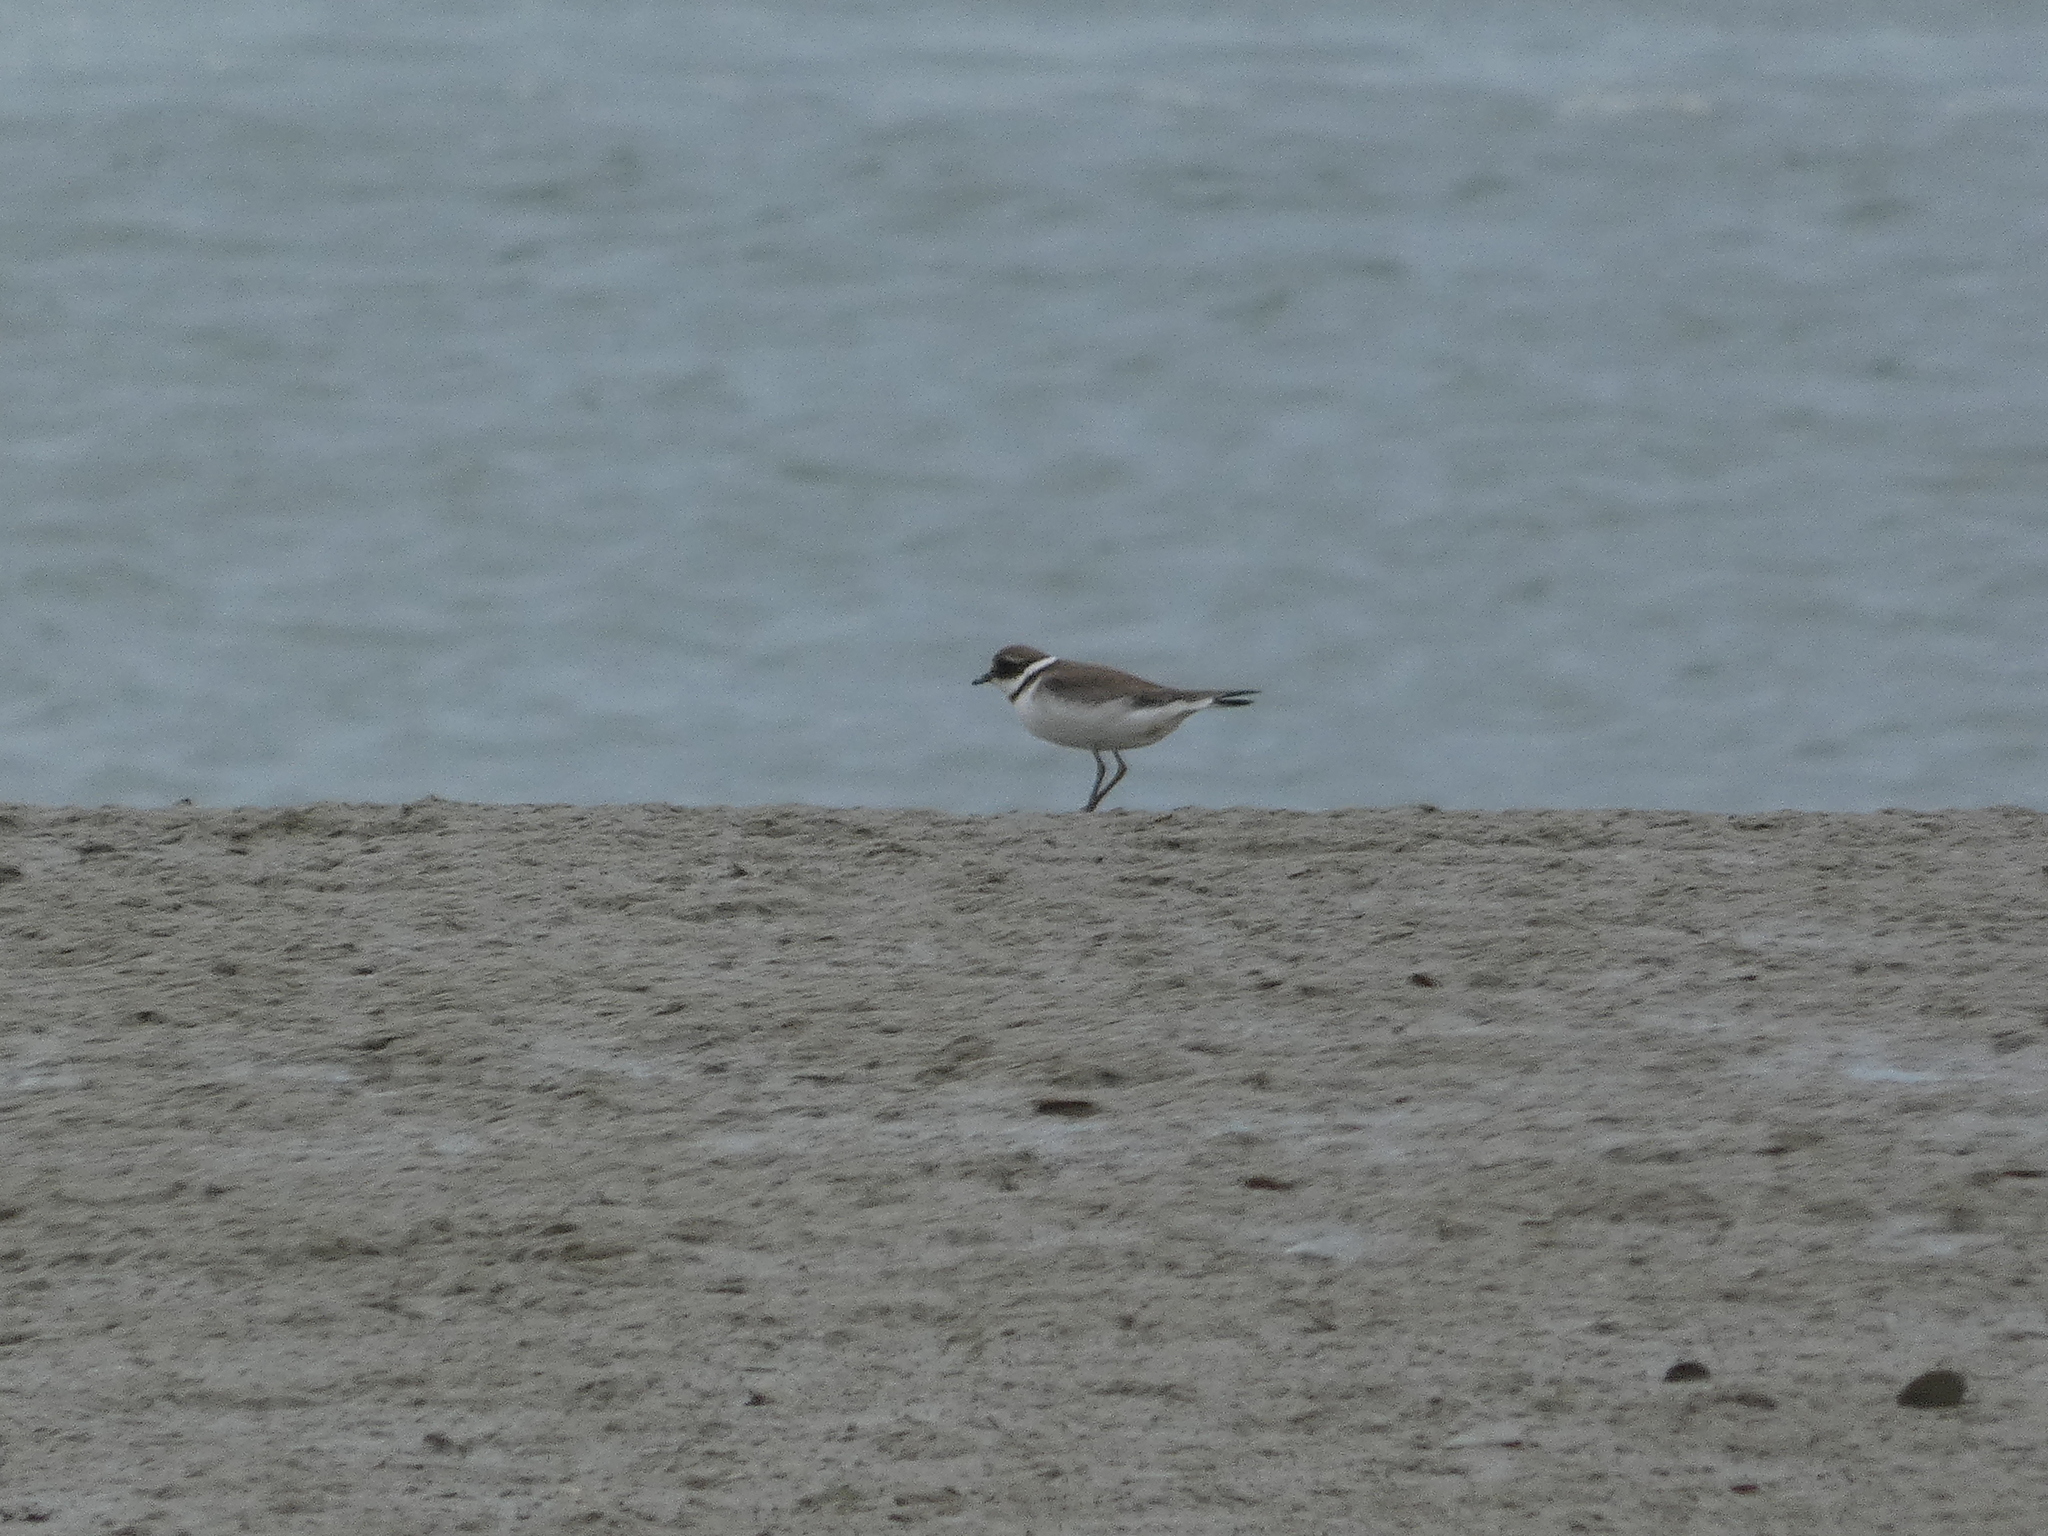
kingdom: Animalia
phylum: Chordata
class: Aves
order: Charadriiformes
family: Charadriidae
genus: Charadrius
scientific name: Charadrius hiaticula
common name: Common ringed plover
